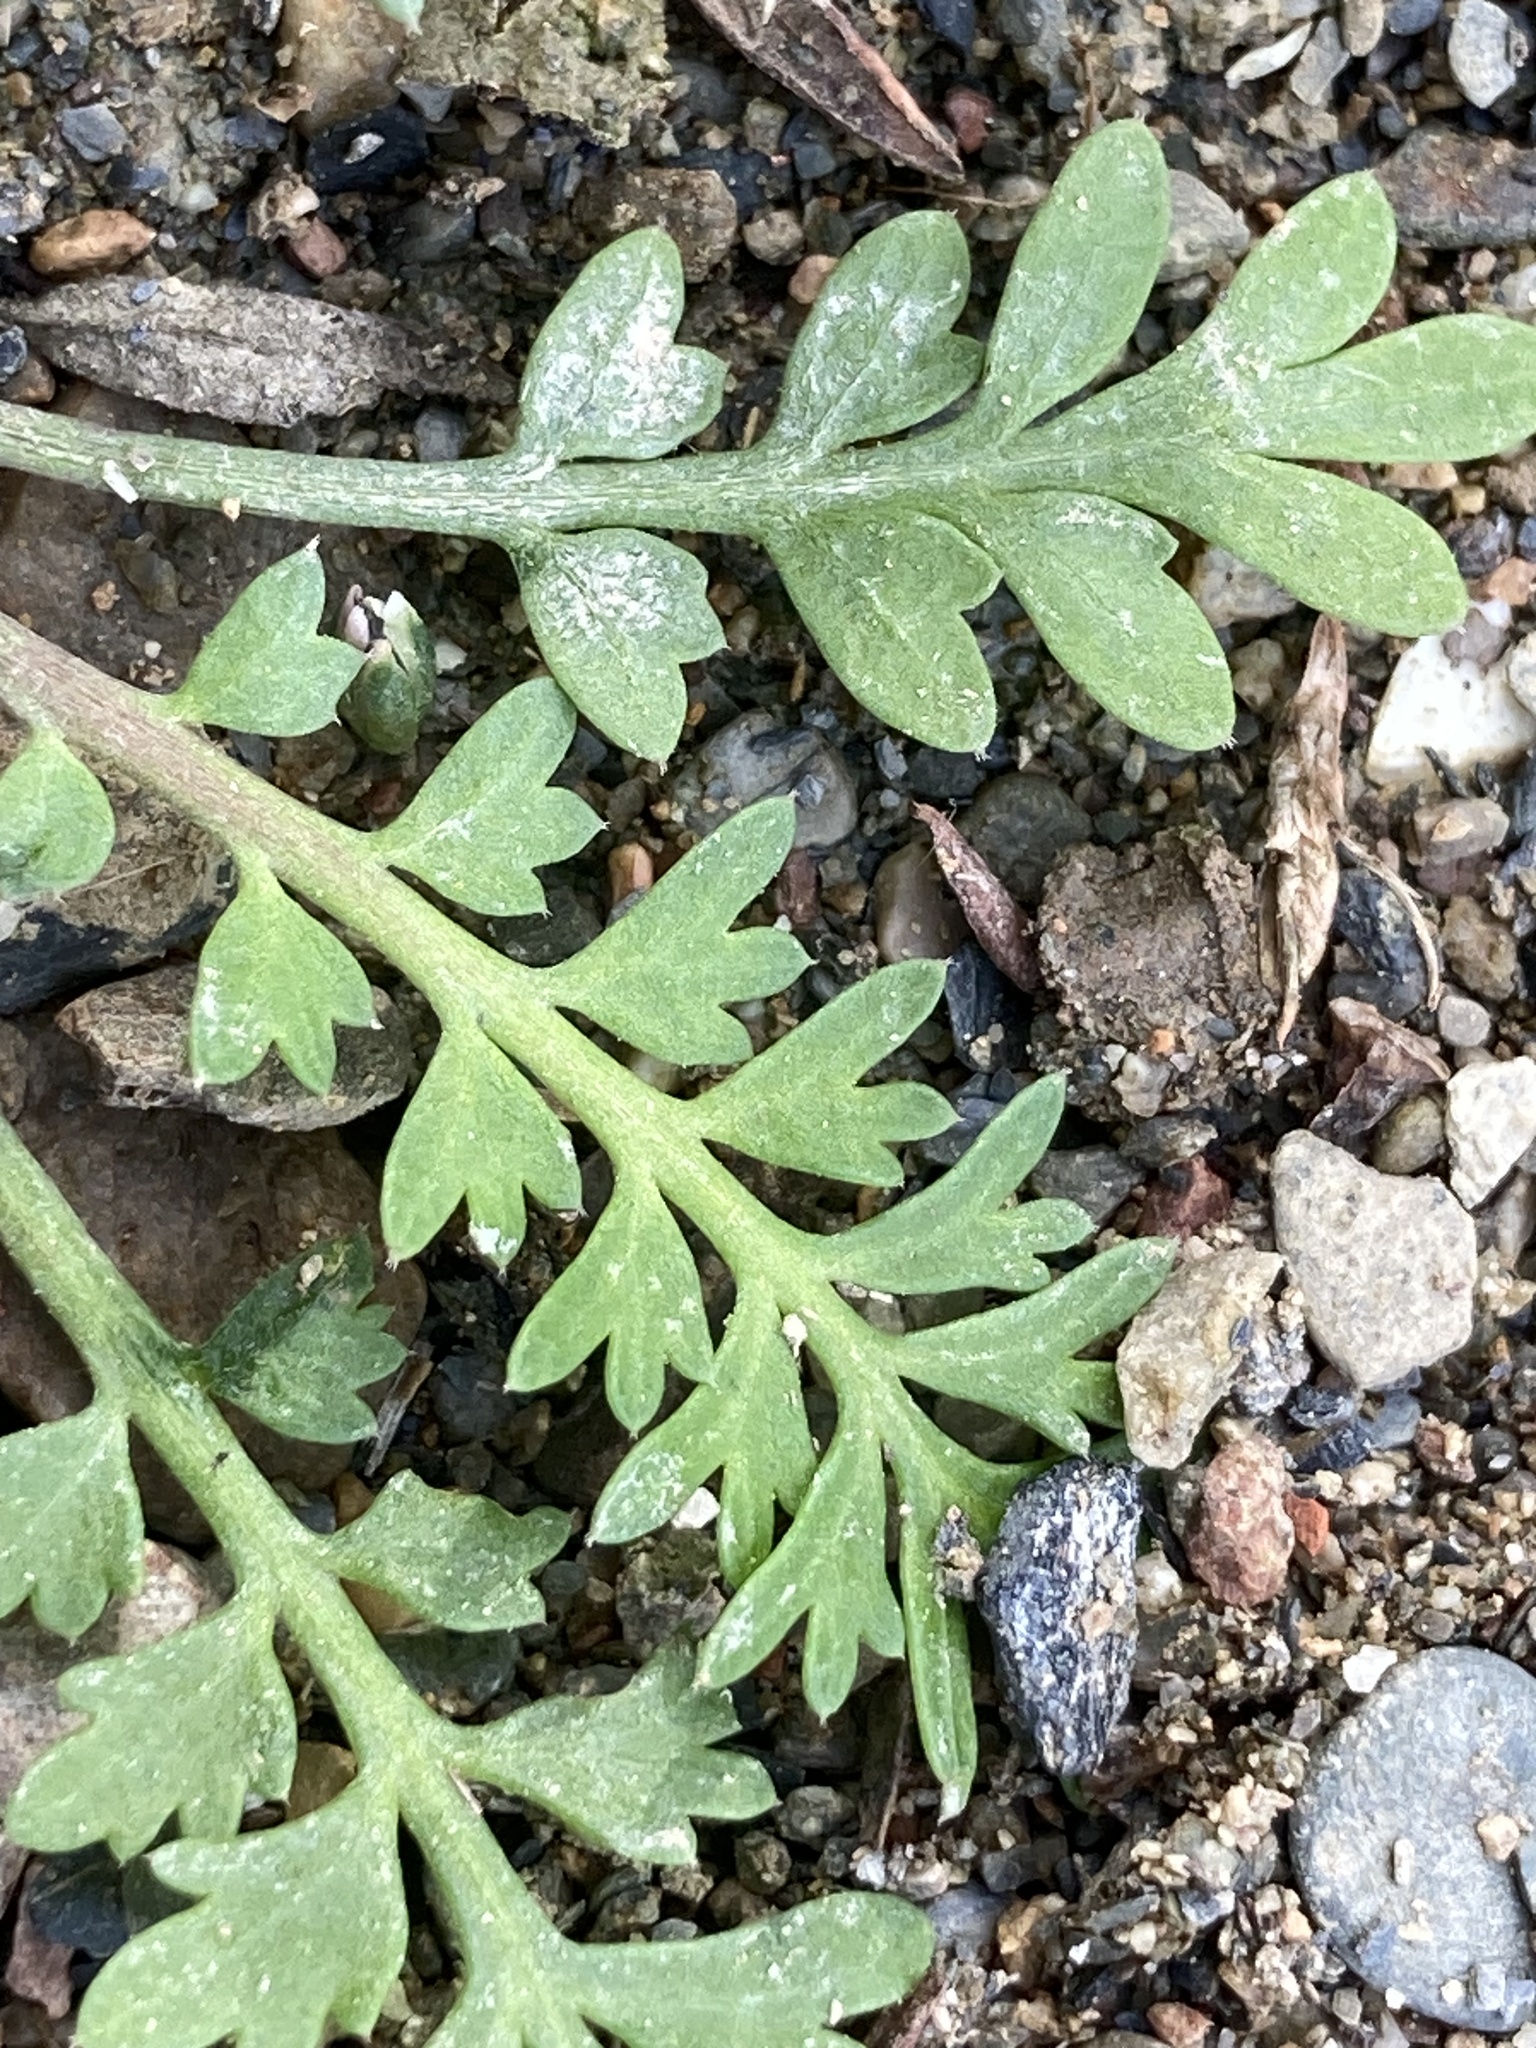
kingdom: Plantae
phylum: Tracheophyta
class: Magnoliopsida
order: Brassicales
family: Brassicaceae
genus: Lepidium
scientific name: Lepidium didymum
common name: Lesser swinecress
